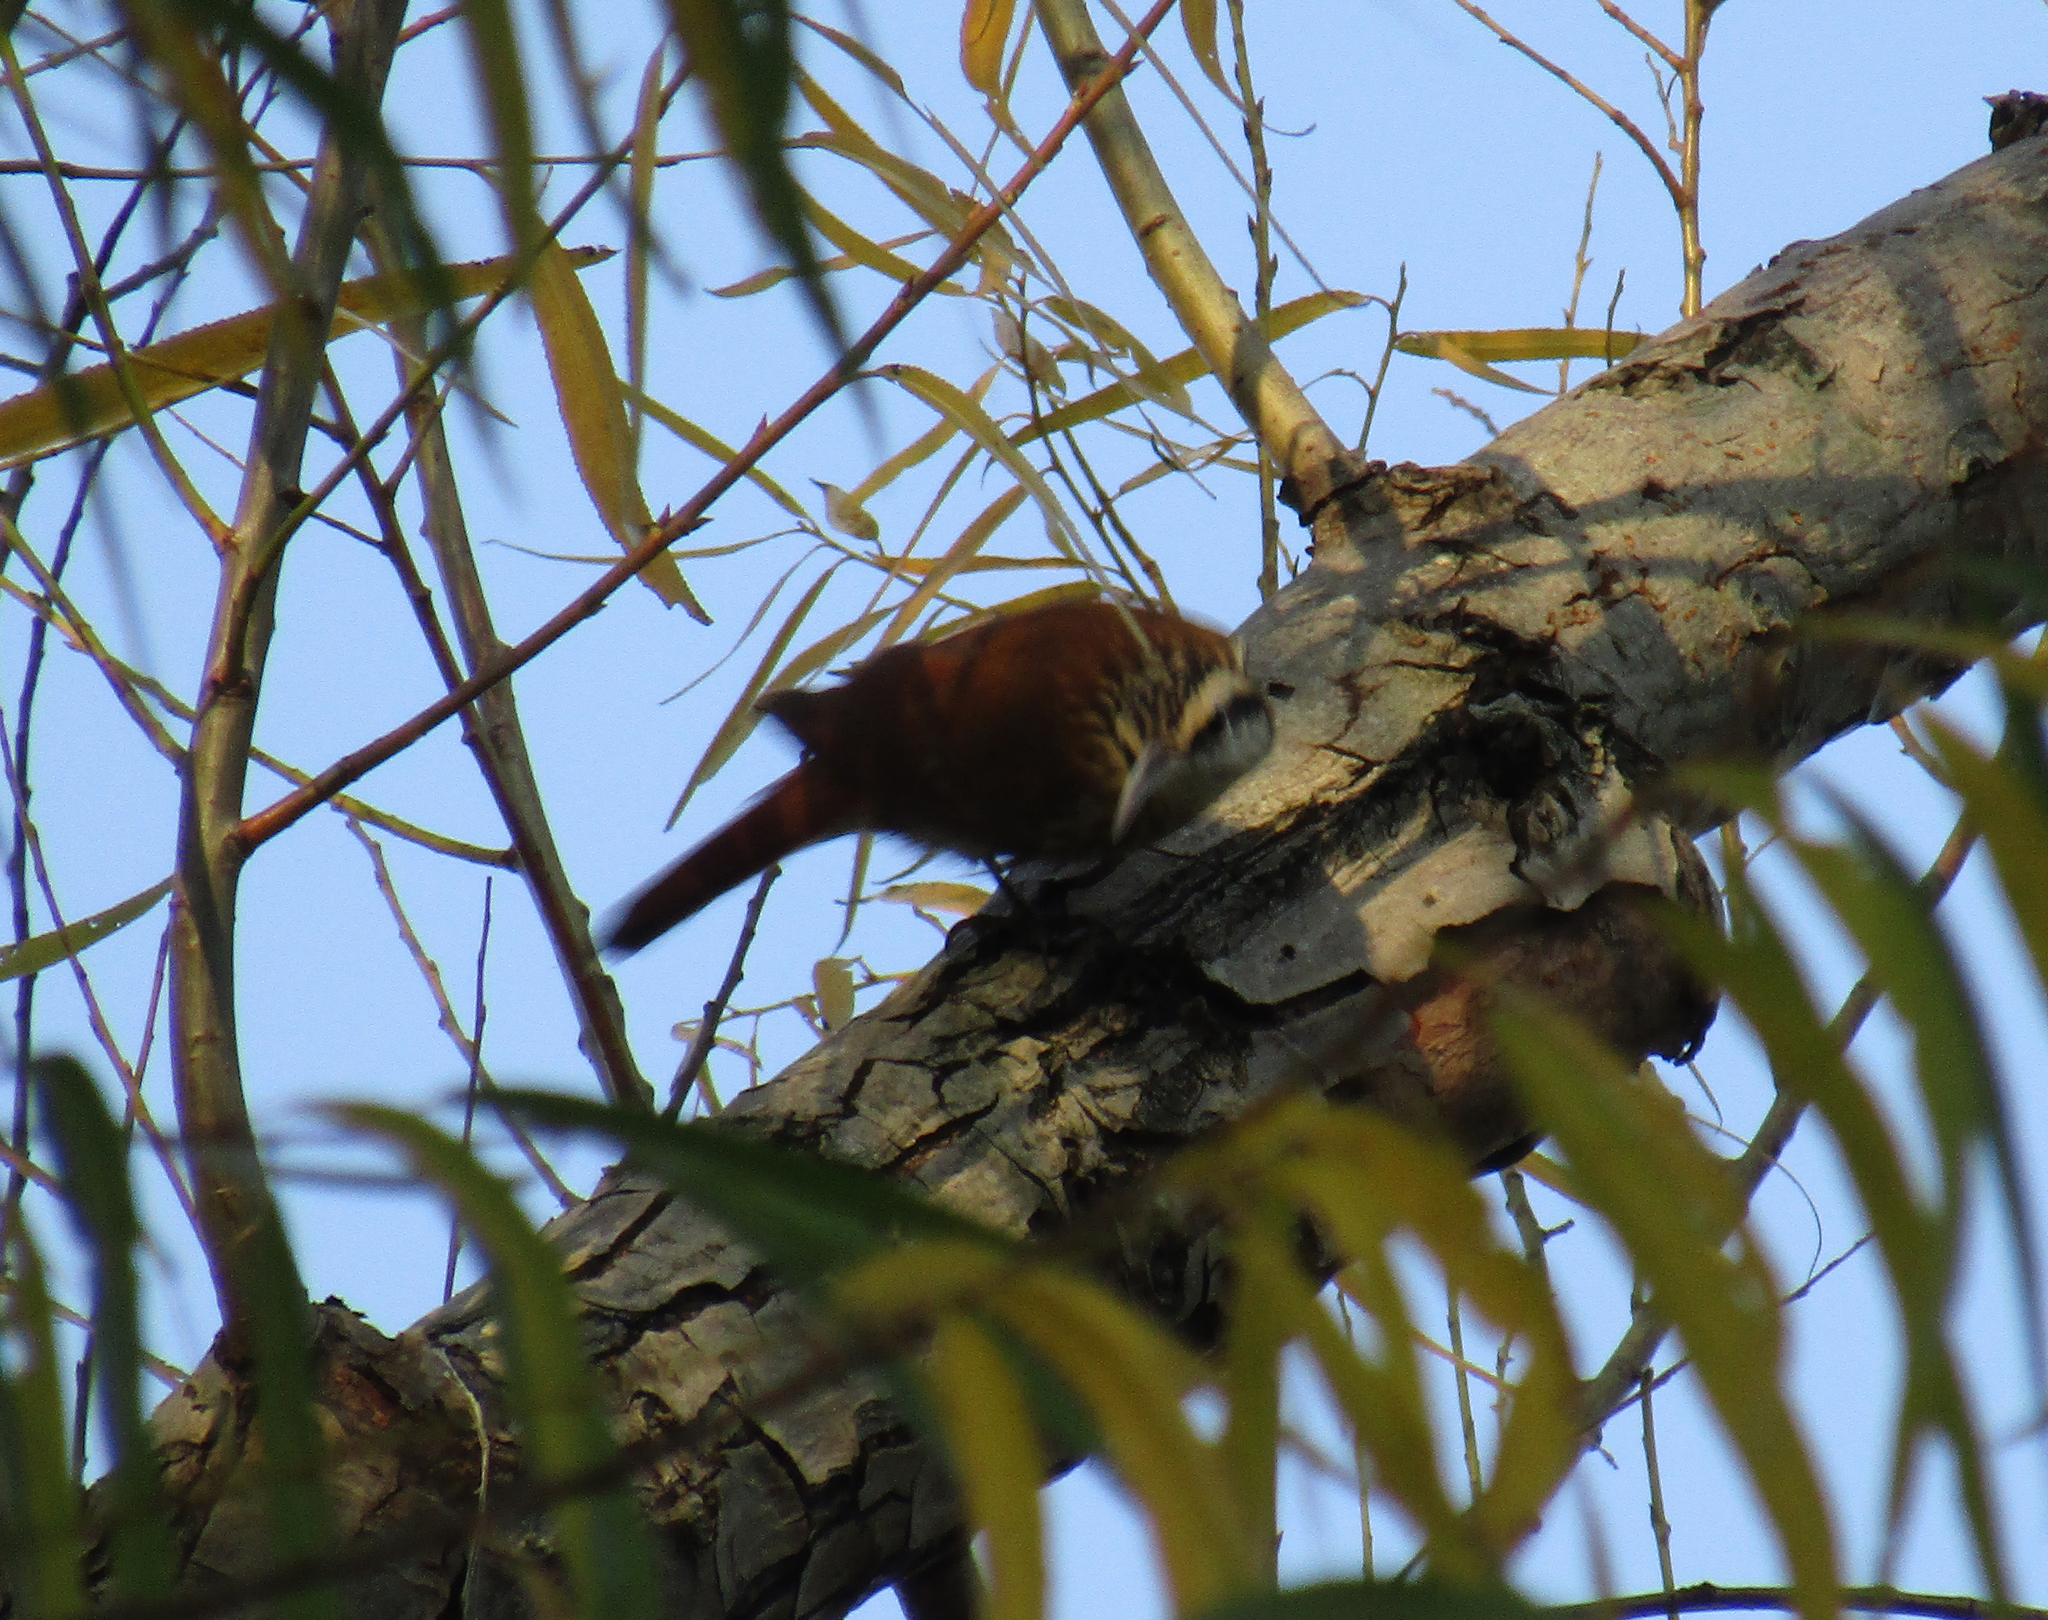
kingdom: Animalia
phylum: Chordata
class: Aves
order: Passeriformes
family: Furnariidae
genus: Lepidocolaptes
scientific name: Lepidocolaptes angustirostris
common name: Narrow-billed woodcreeper
